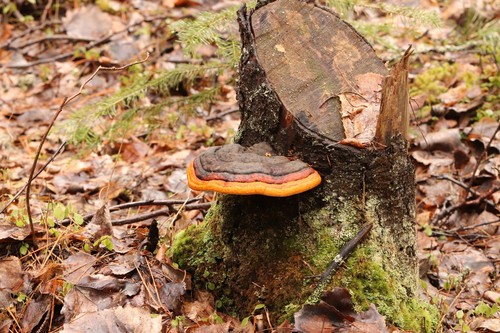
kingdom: Fungi
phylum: Basidiomycota
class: Agaricomycetes
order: Polyporales
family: Fomitopsidaceae
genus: Fomitopsis
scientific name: Fomitopsis pinicola
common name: Red-belted bracket
